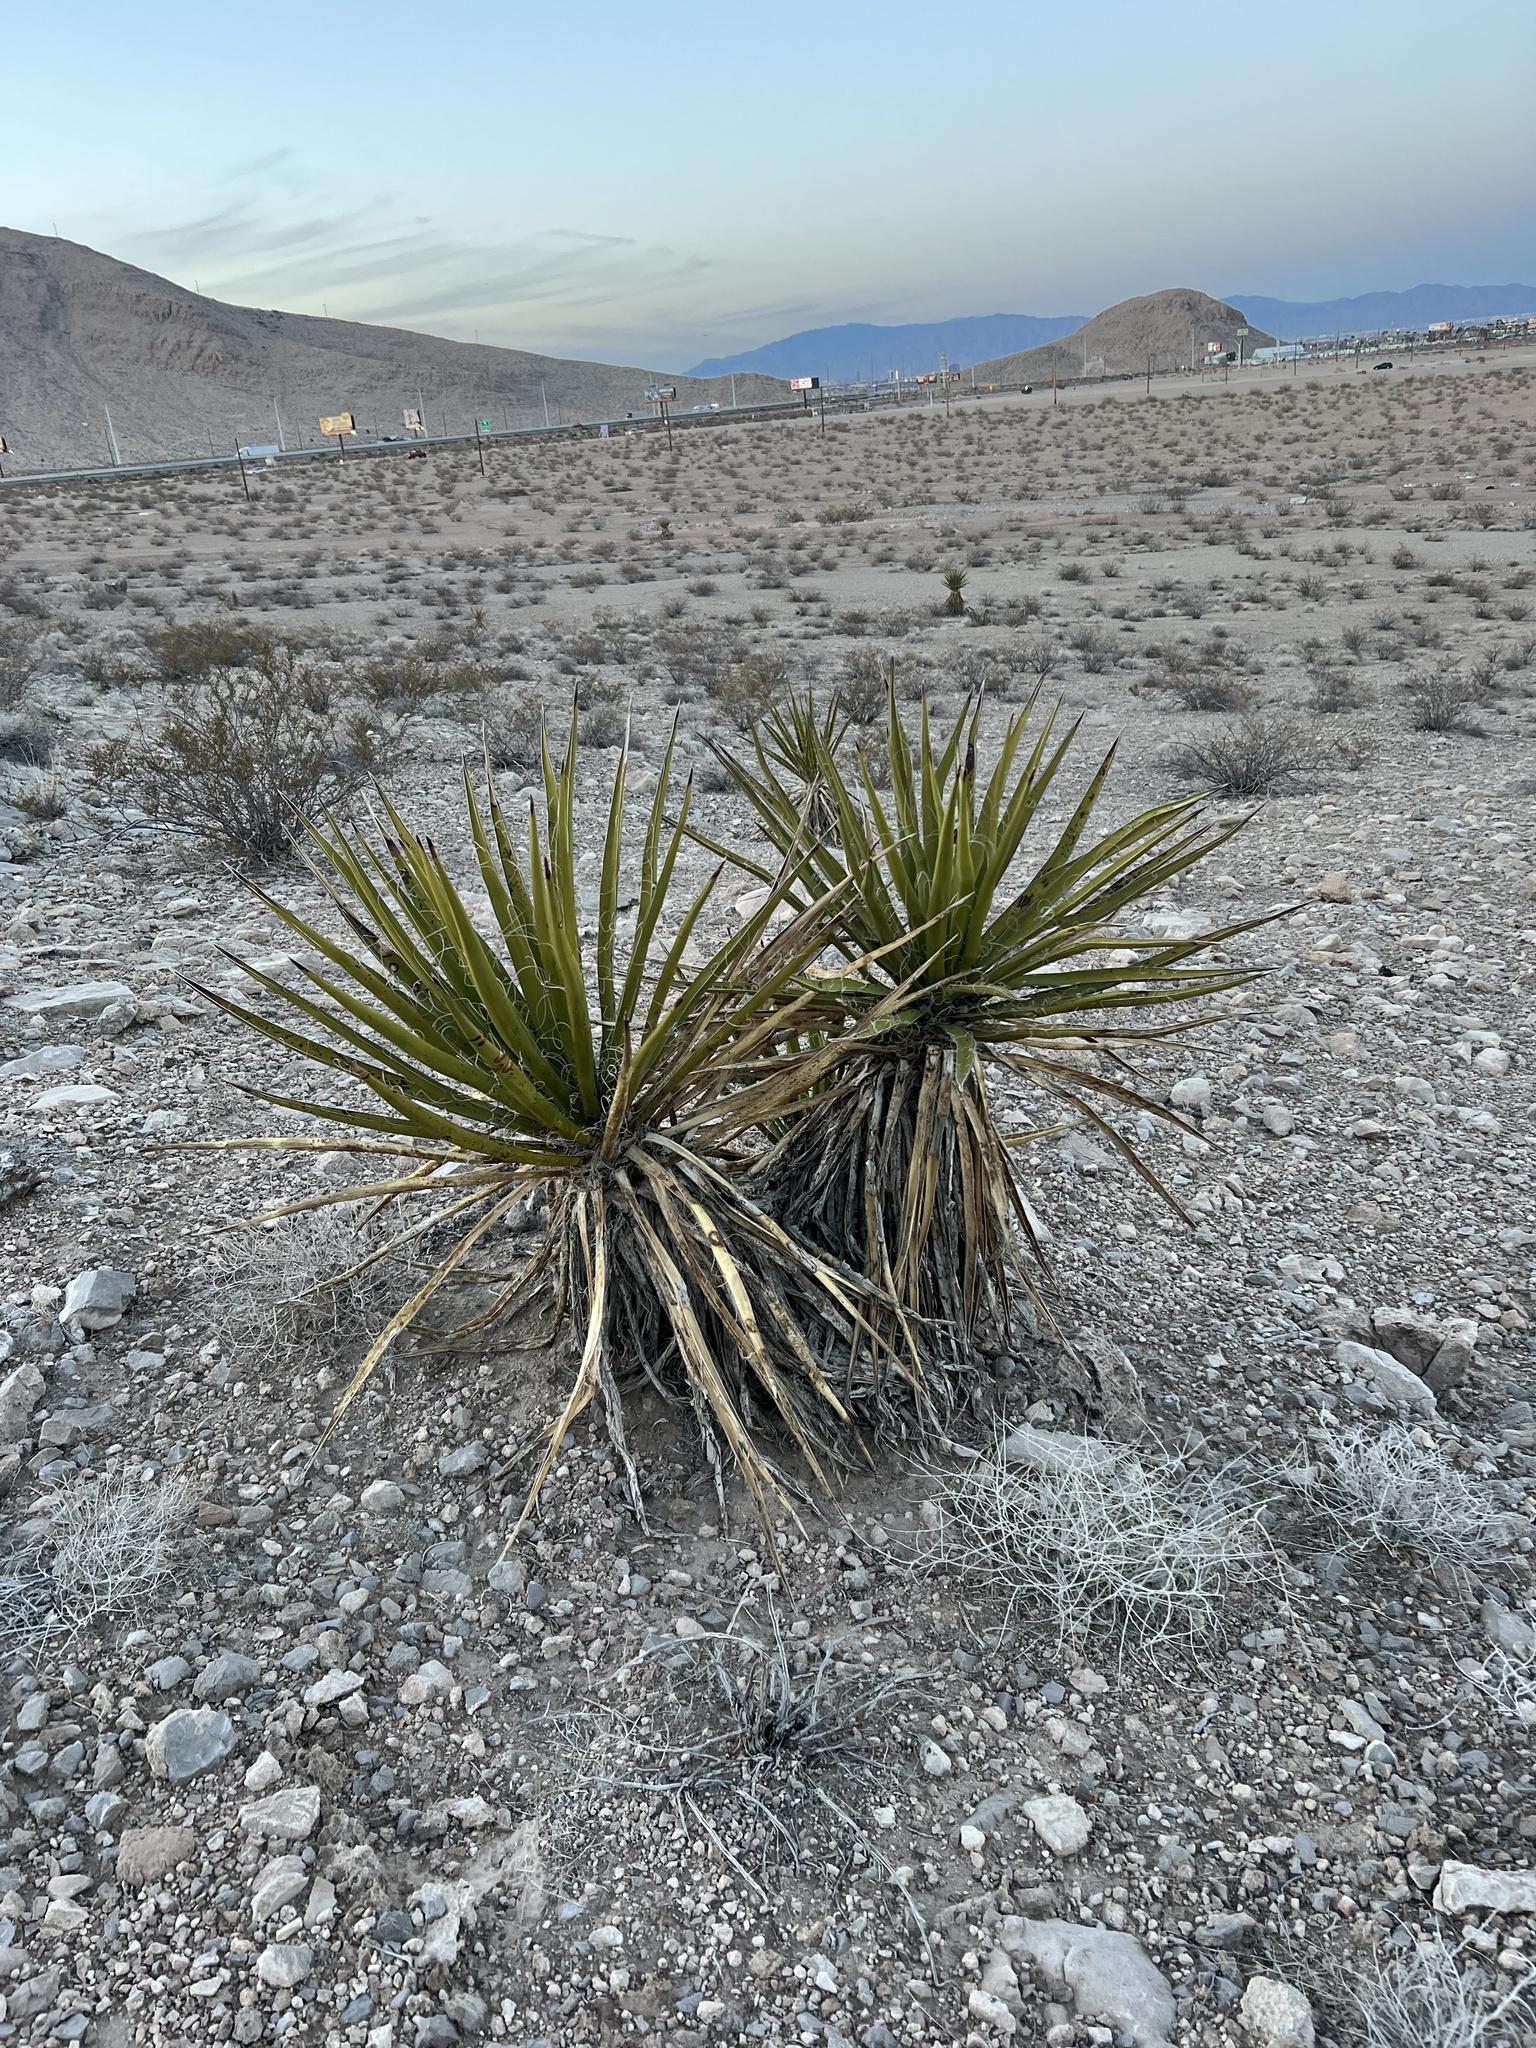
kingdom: Plantae
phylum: Tracheophyta
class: Liliopsida
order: Asparagales
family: Asparagaceae
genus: Yucca
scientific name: Yucca schidigera
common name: Mojave yucca
